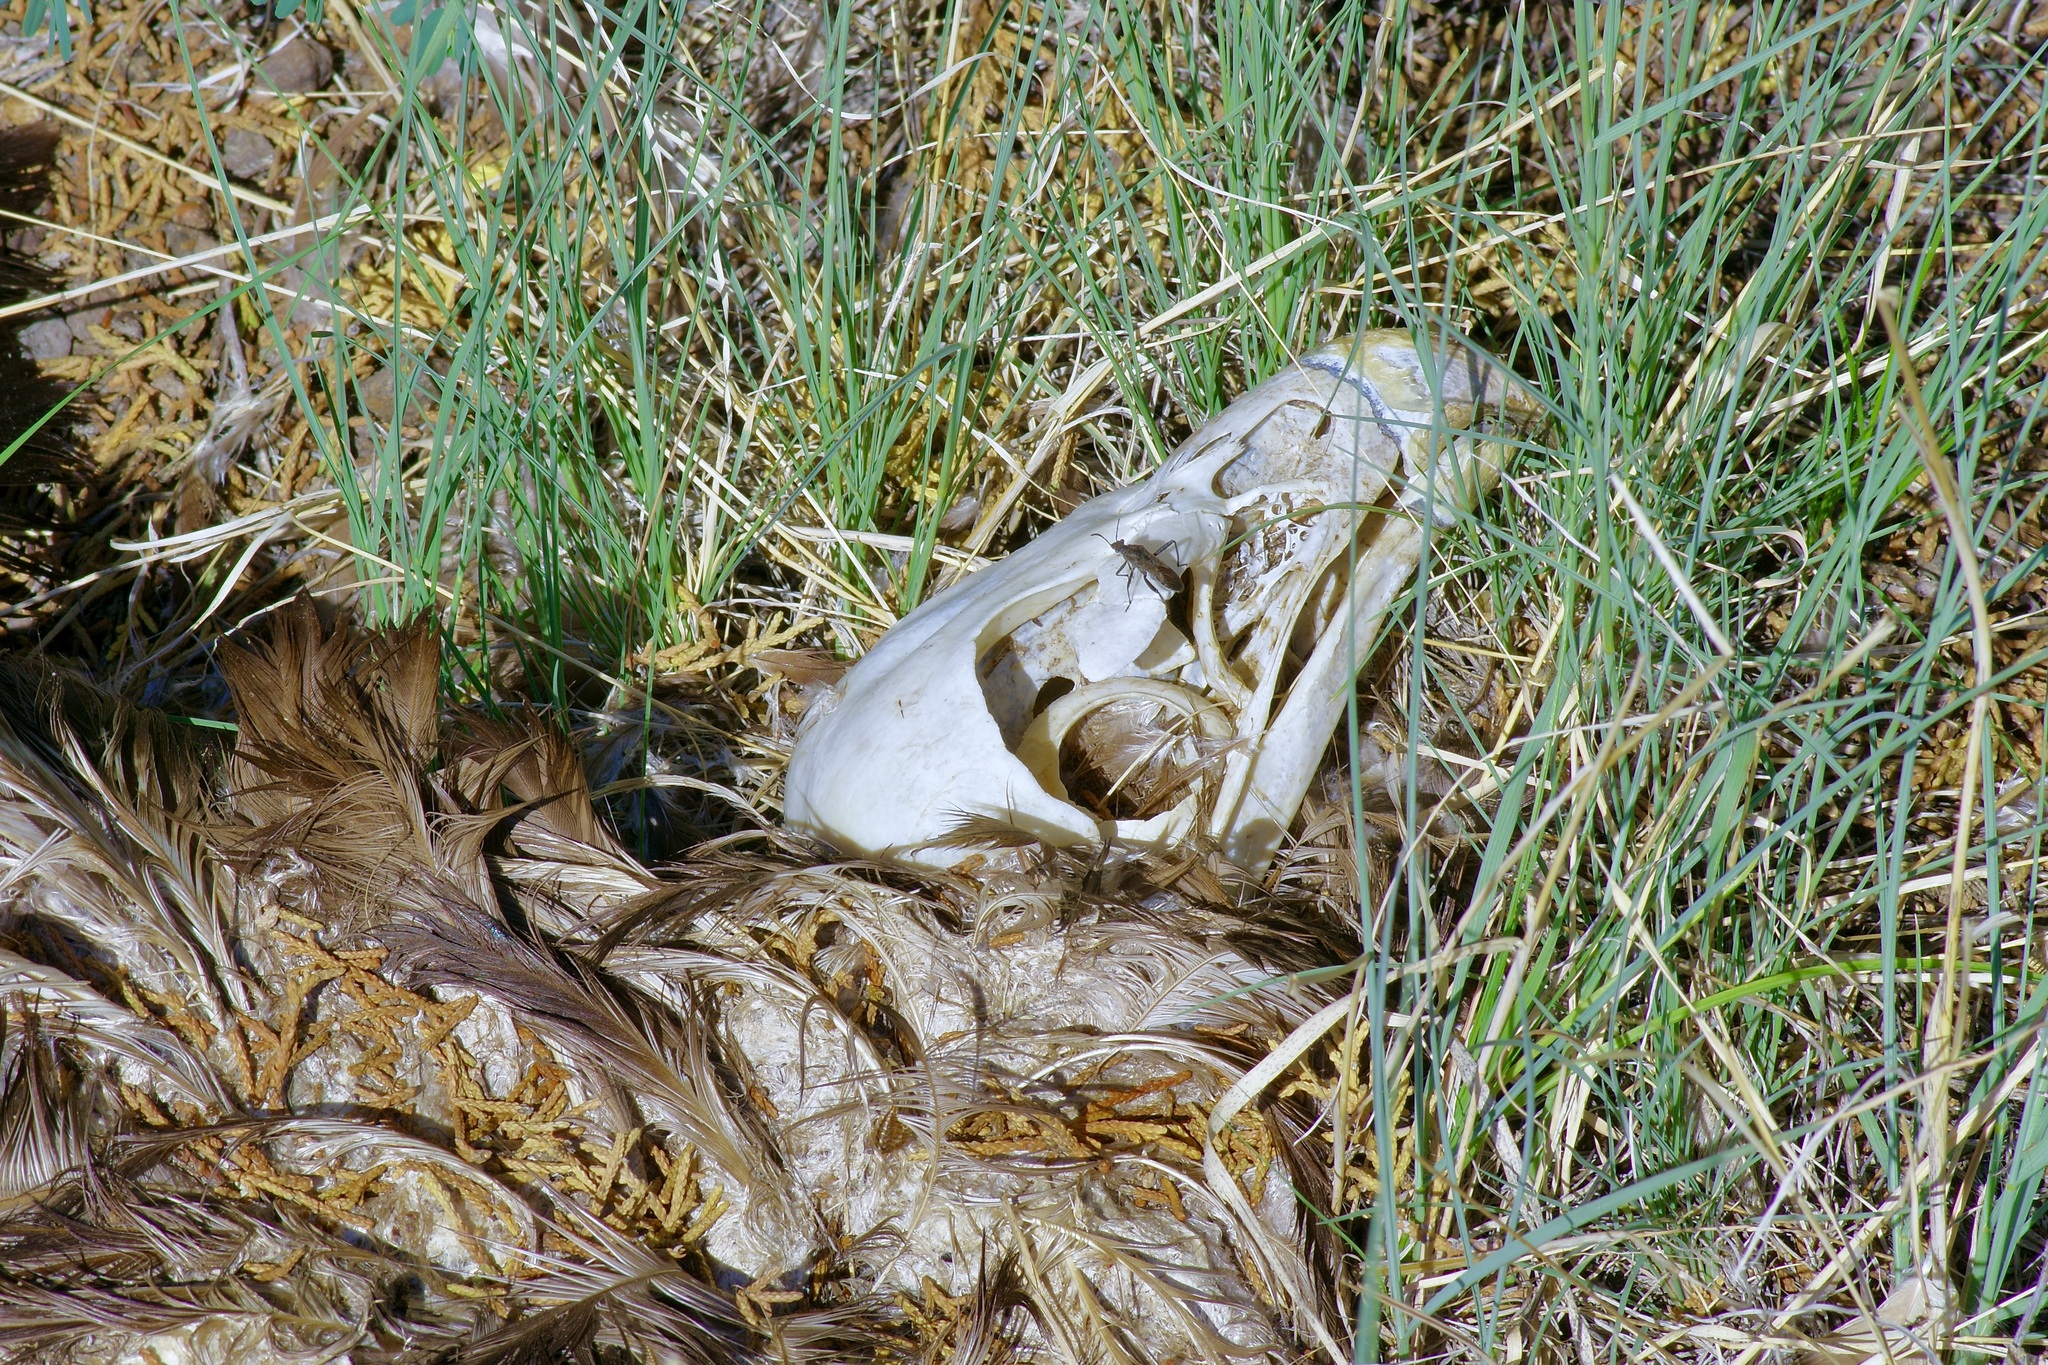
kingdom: Animalia
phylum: Chordata
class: Aves
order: Accipitriformes
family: Accipitridae
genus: Haliaeetus
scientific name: Haliaeetus leucocephalus
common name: Bald eagle
